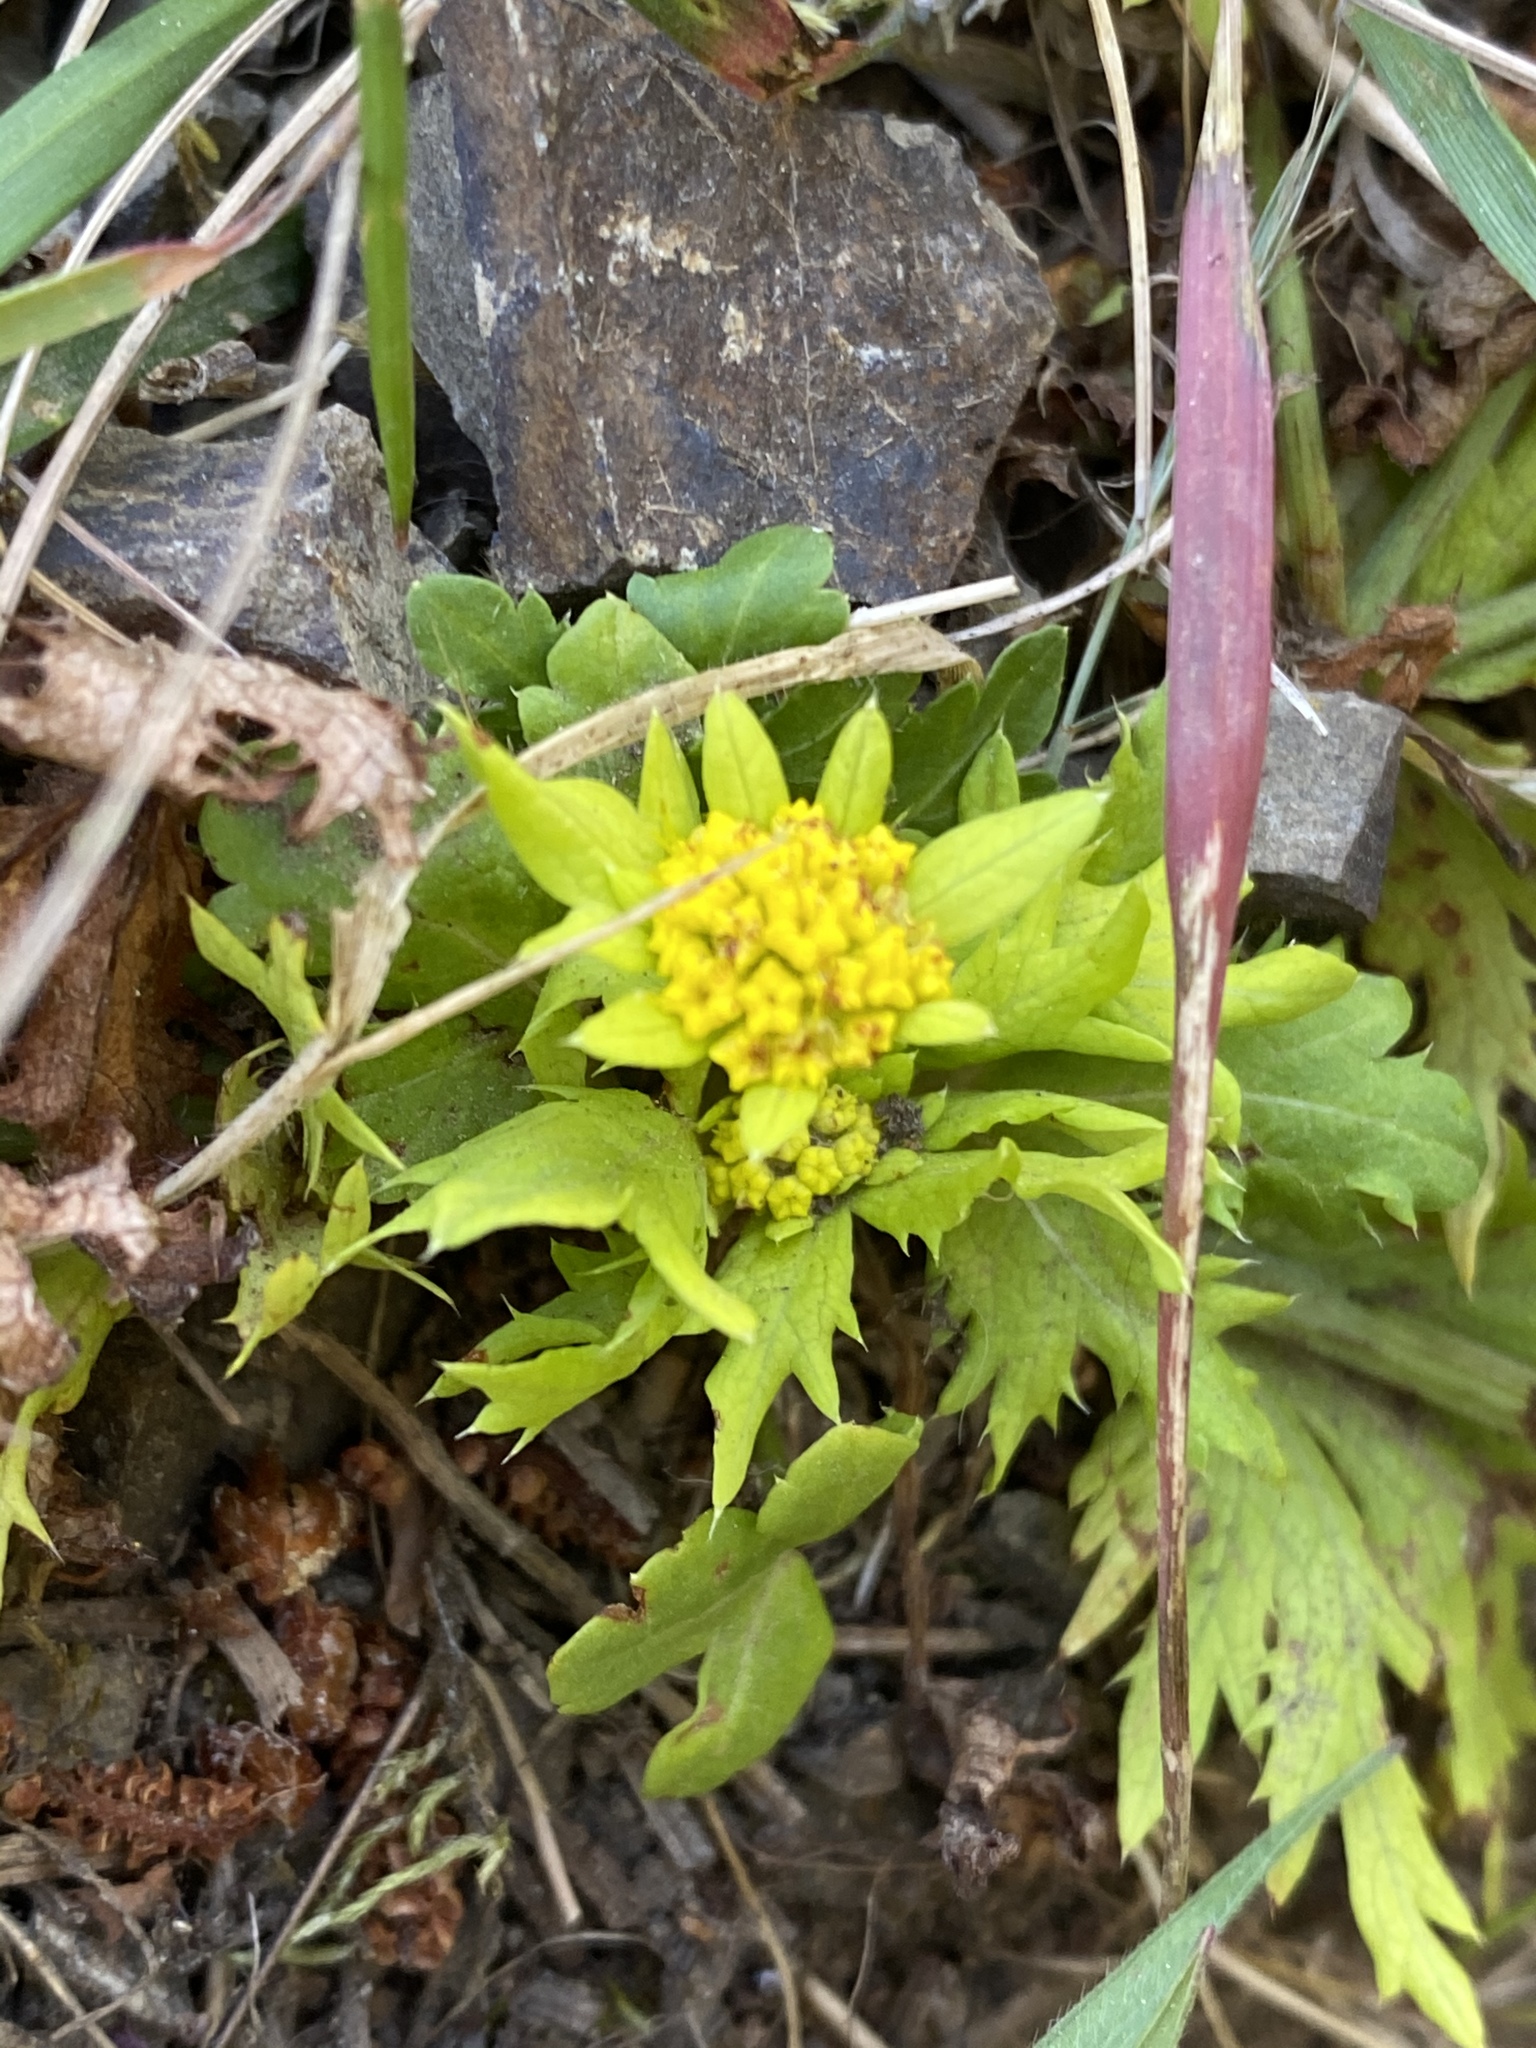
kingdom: Plantae
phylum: Tracheophyta
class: Magnoliopsida
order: Apiales
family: Apiaceae
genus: Sanicula
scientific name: Sanicula arctopoides
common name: Footsteps-of-spring
